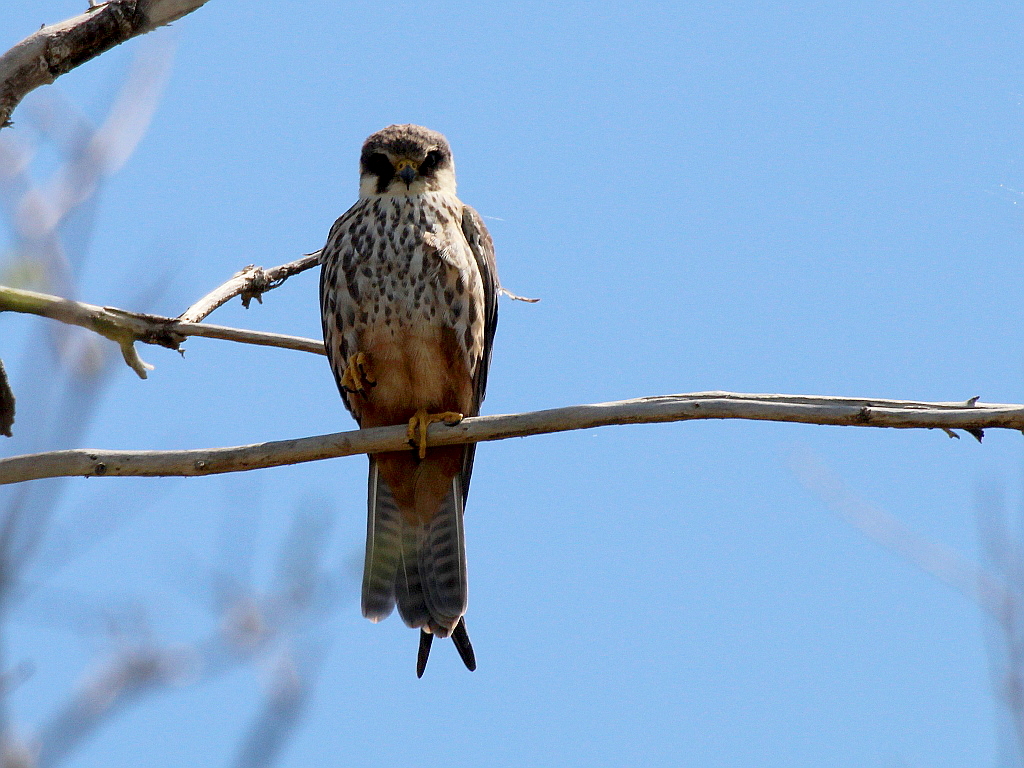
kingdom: Animalia
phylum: Chordata
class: Aves
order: Falconiformes
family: Falconidae
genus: Falco
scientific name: Falco subbuteo
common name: Eurasian hobby
